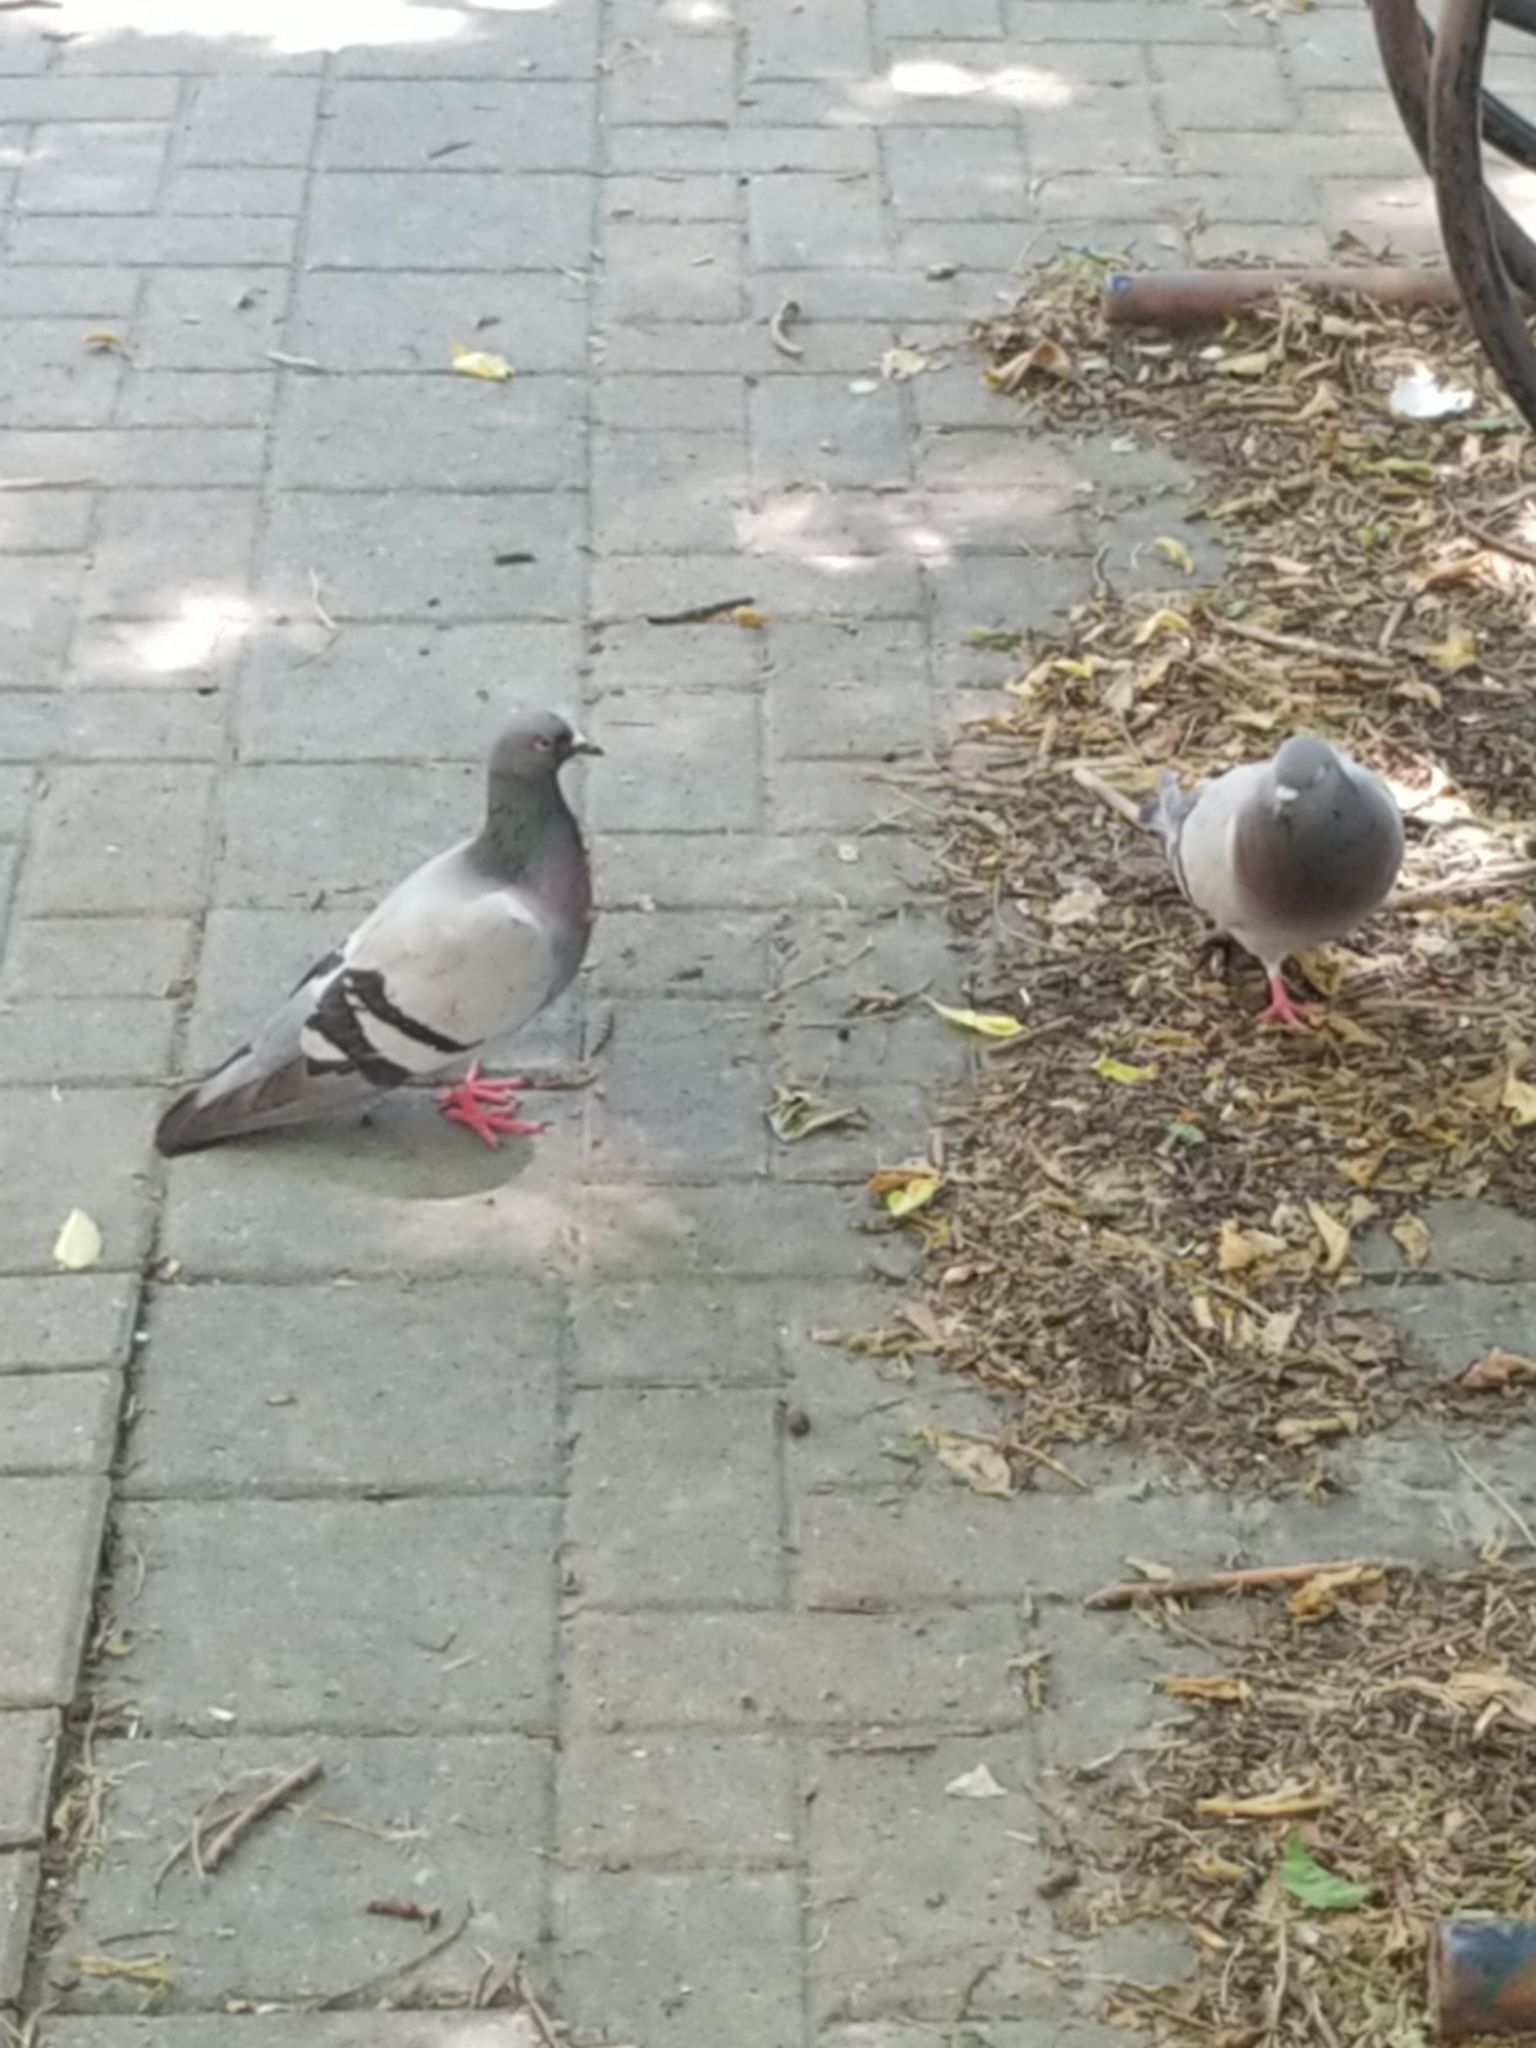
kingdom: Animalia
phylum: Chordata
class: Aves
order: Columbiformes
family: Columbidae
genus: Columba
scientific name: Columba livia
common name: Rock pigeon
